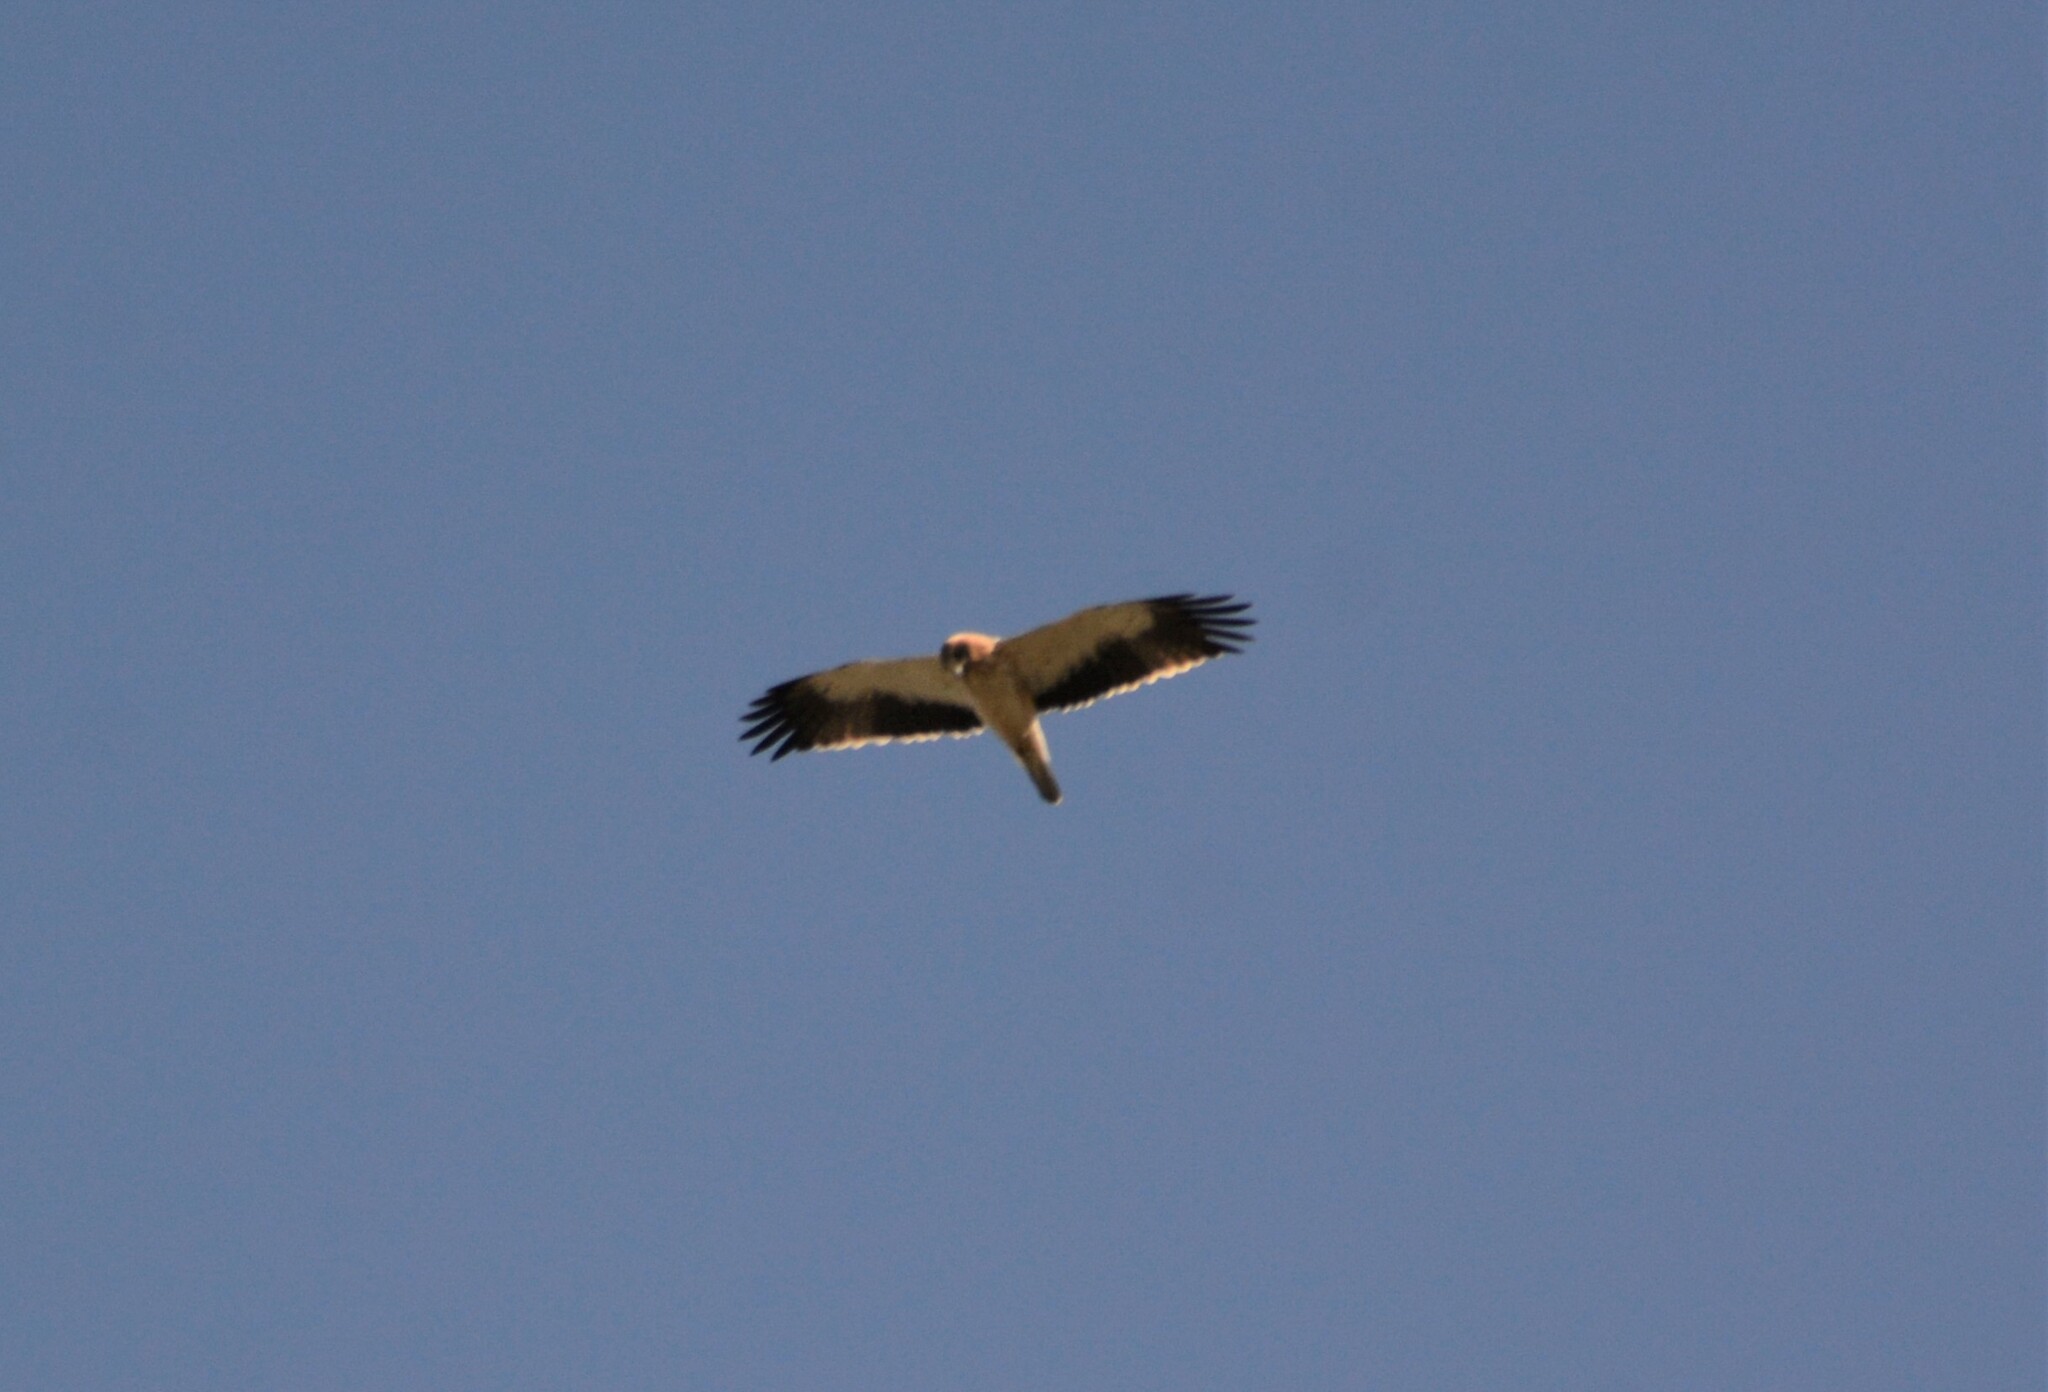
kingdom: Animalia
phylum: Chordata
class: Aves
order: Accipitriformes
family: Accipitridae
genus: Hieraaetus
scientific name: Hieraaetus pennatus
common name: Booted eagle
